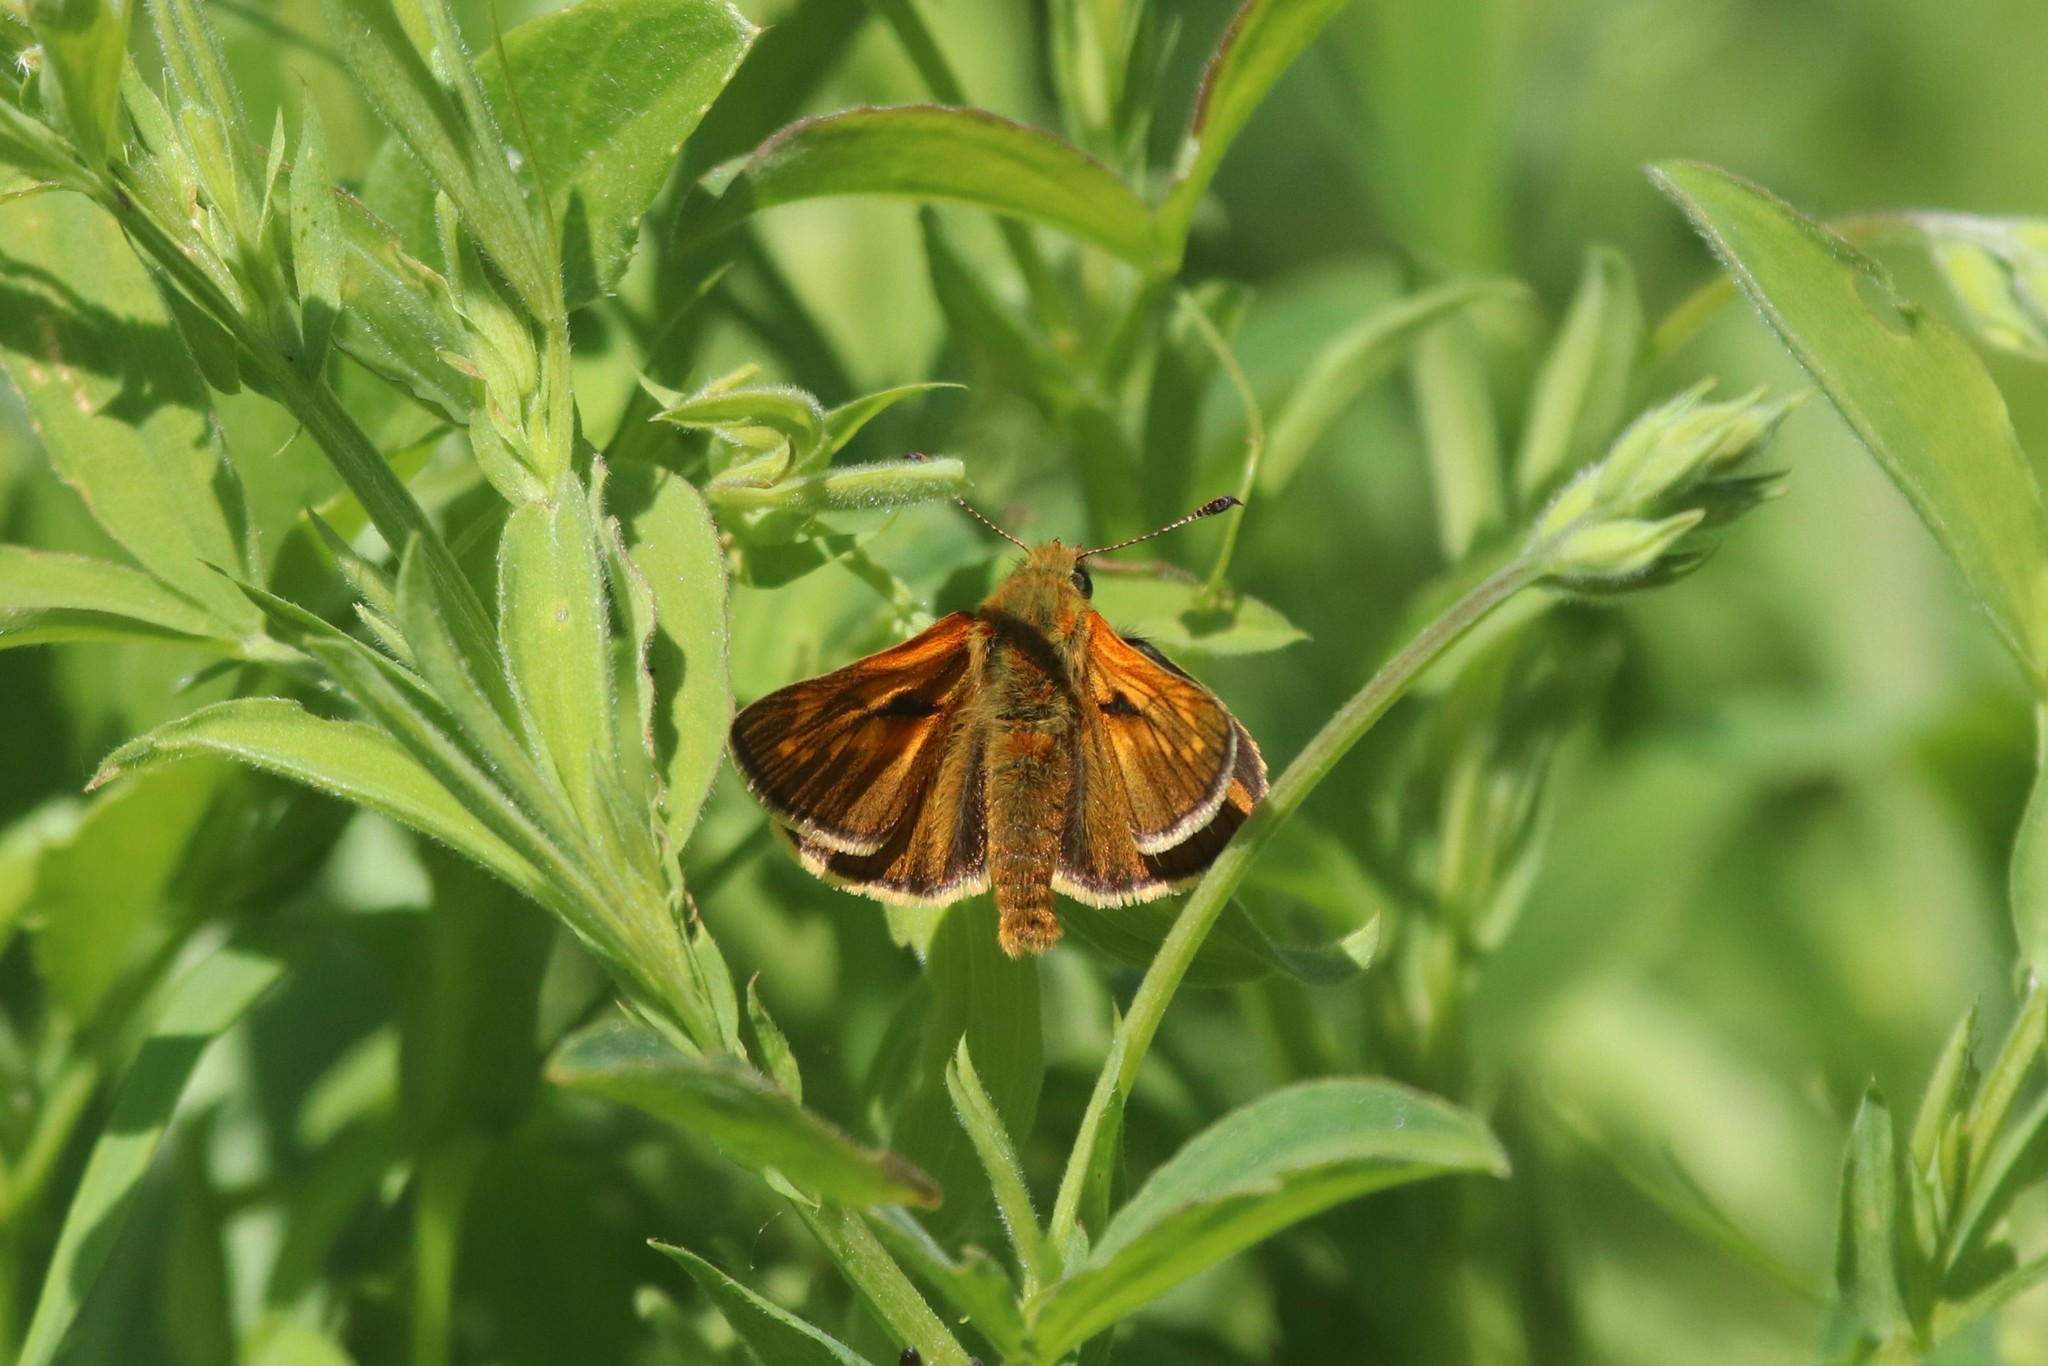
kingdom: Animalia
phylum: Arthropoda
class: Insecta
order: Lepidoptera
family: Hesperiidae
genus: Ochlodes
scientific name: Ochlodes venata
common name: Large skipper
